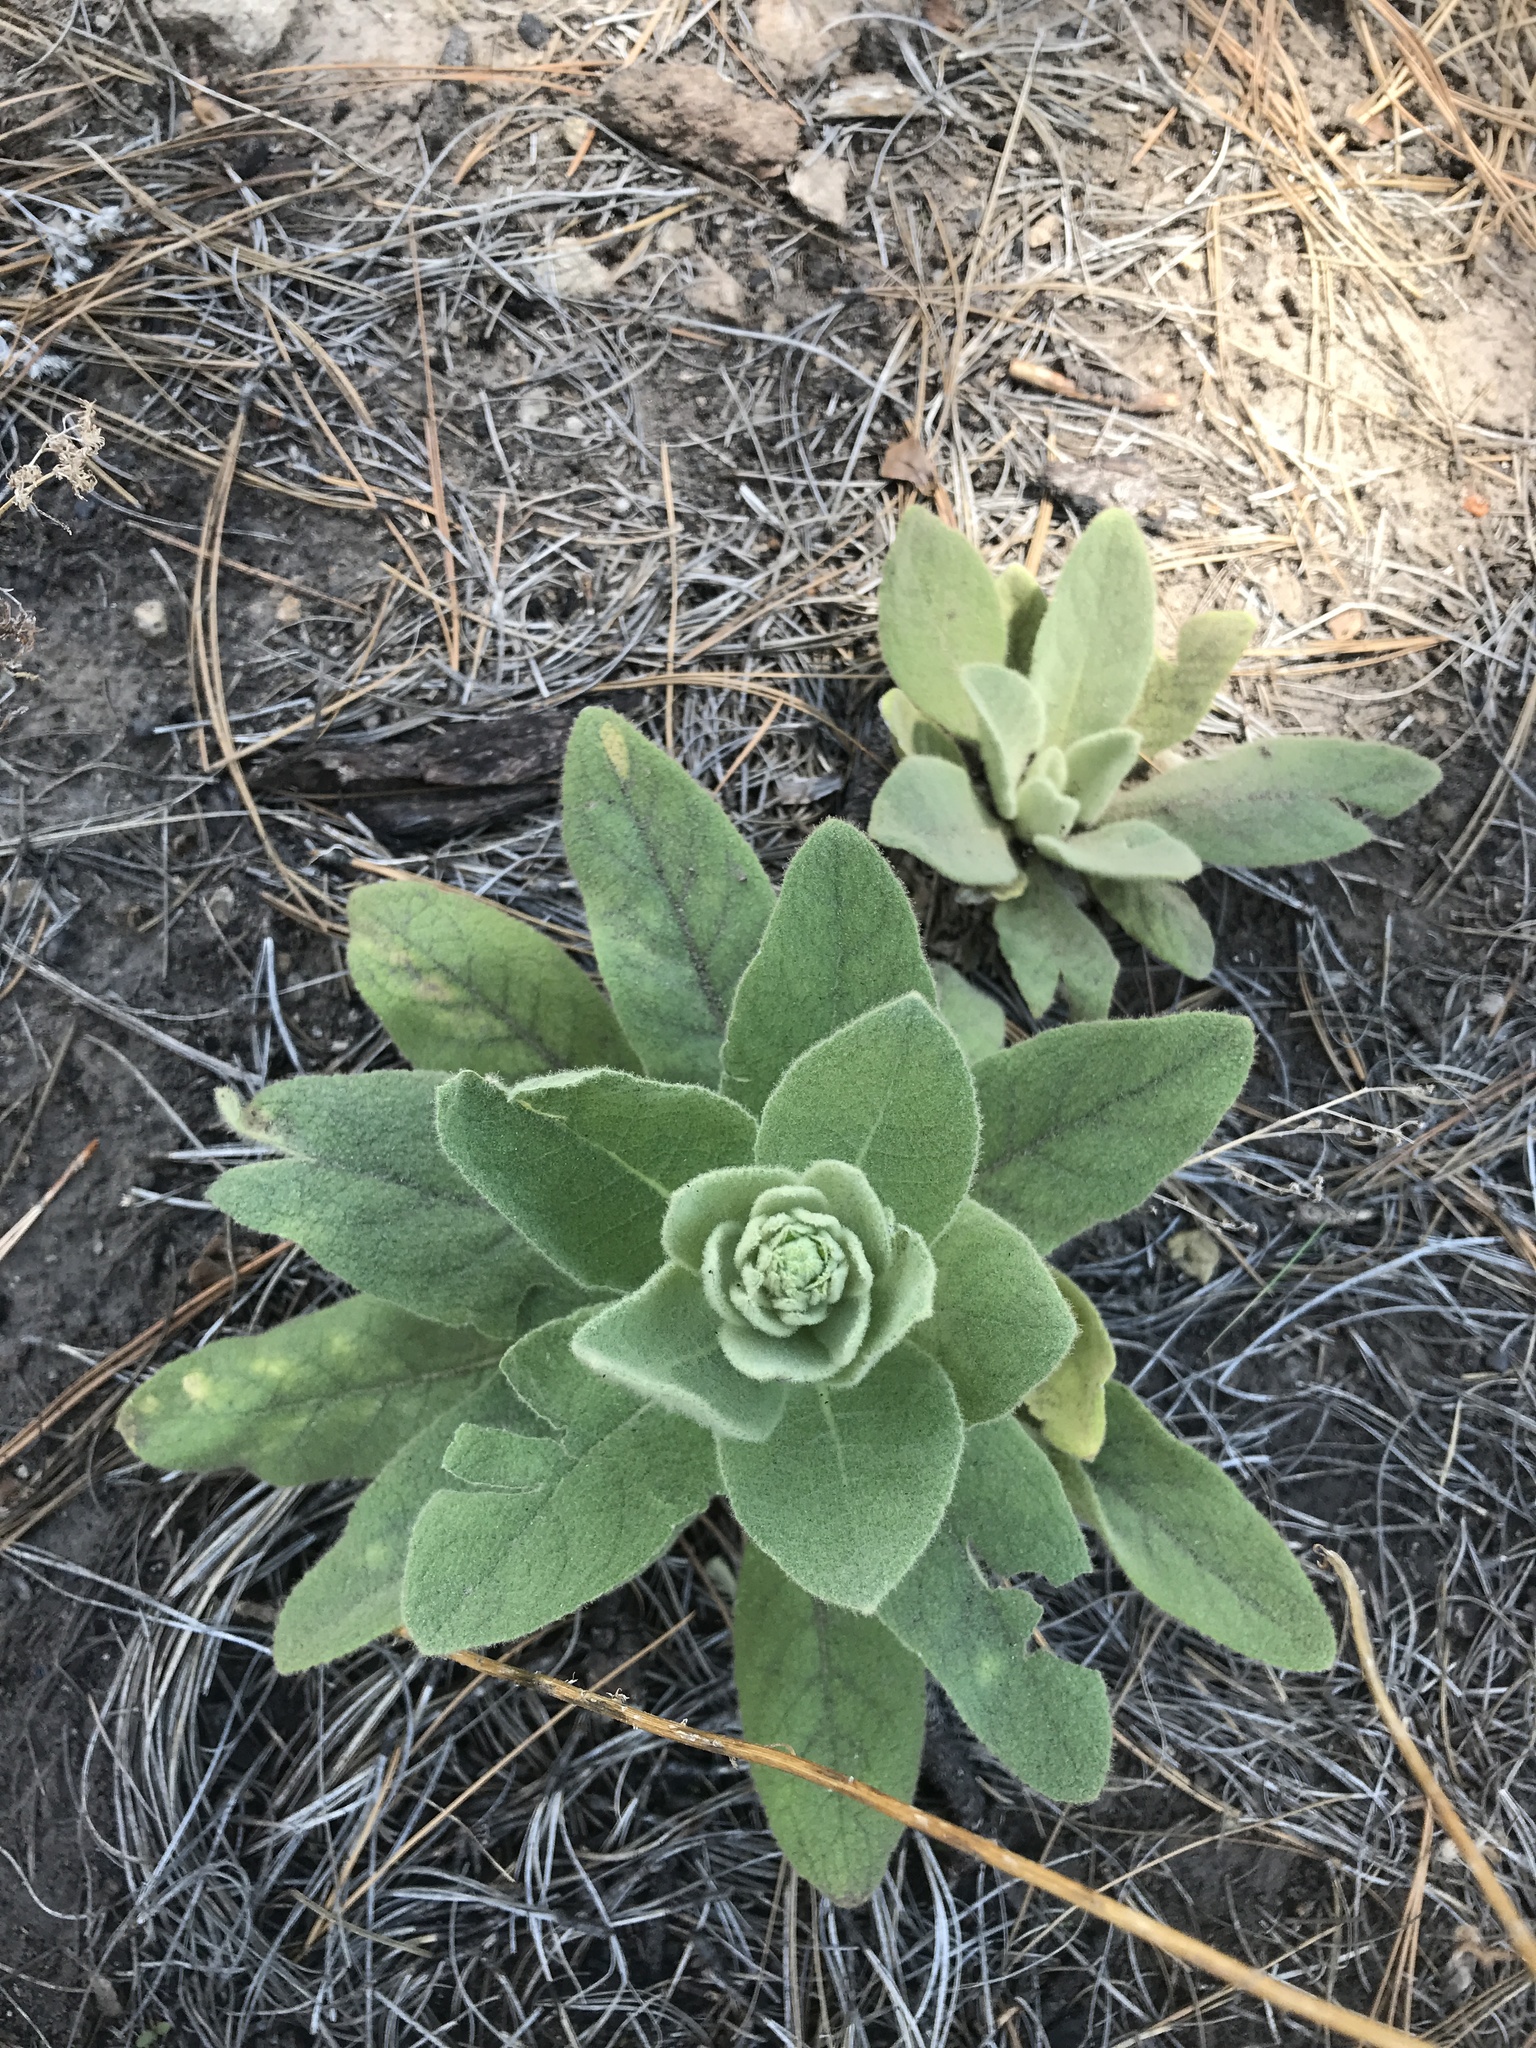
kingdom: Plantae
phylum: Tracheophyta
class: Magnoliopsida
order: Lamiales
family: Scrophulariaceae
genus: Verbascum
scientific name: Verbascum thapsus
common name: Common mullein
